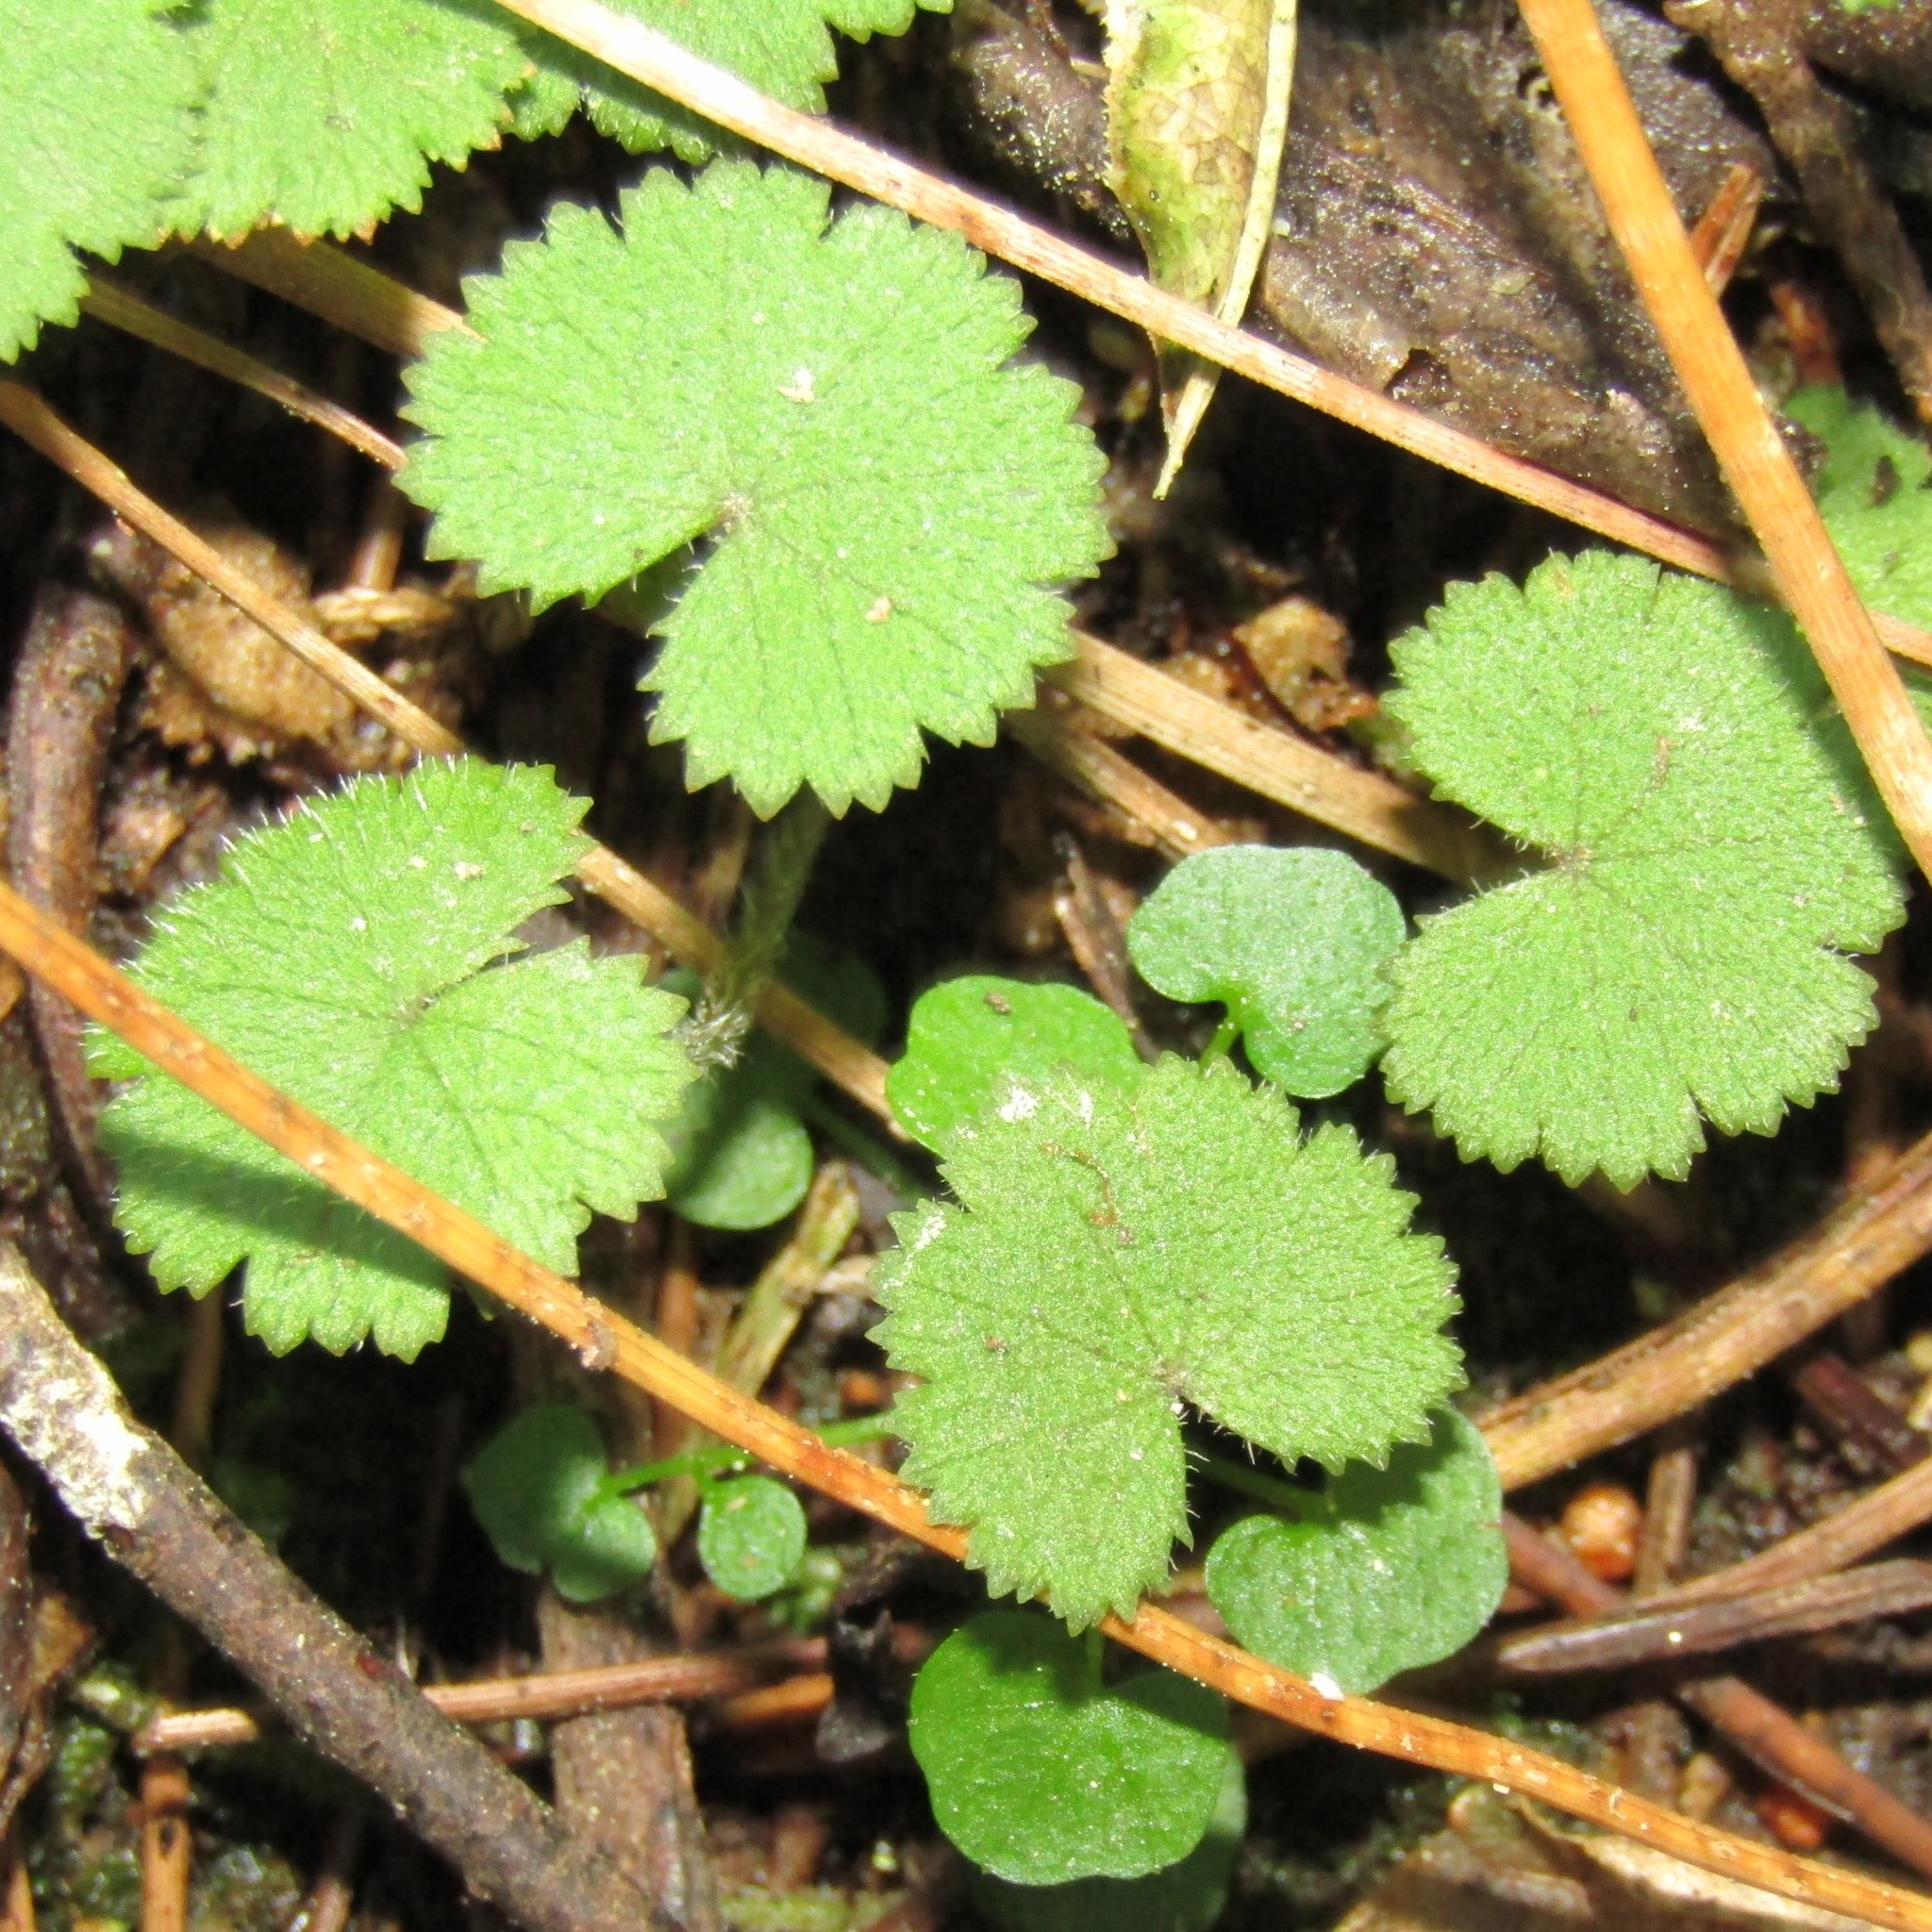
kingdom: Plantae
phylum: Tracheophyta
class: Magnoliopsida
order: Apiales
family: Araliaceae
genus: Hydrocotyle
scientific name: Hydrocotyle moschata
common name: Hairy pennywort
